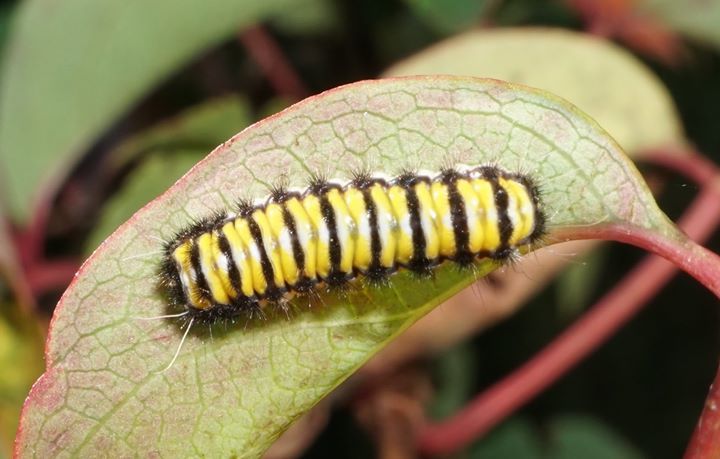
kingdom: Animalia
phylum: Arthropoda
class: Insecta
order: Lepidoptera
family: Zygaenidae
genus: Harrisina
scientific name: Harrisina americana
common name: Grapeleaf skeletonizer moth
